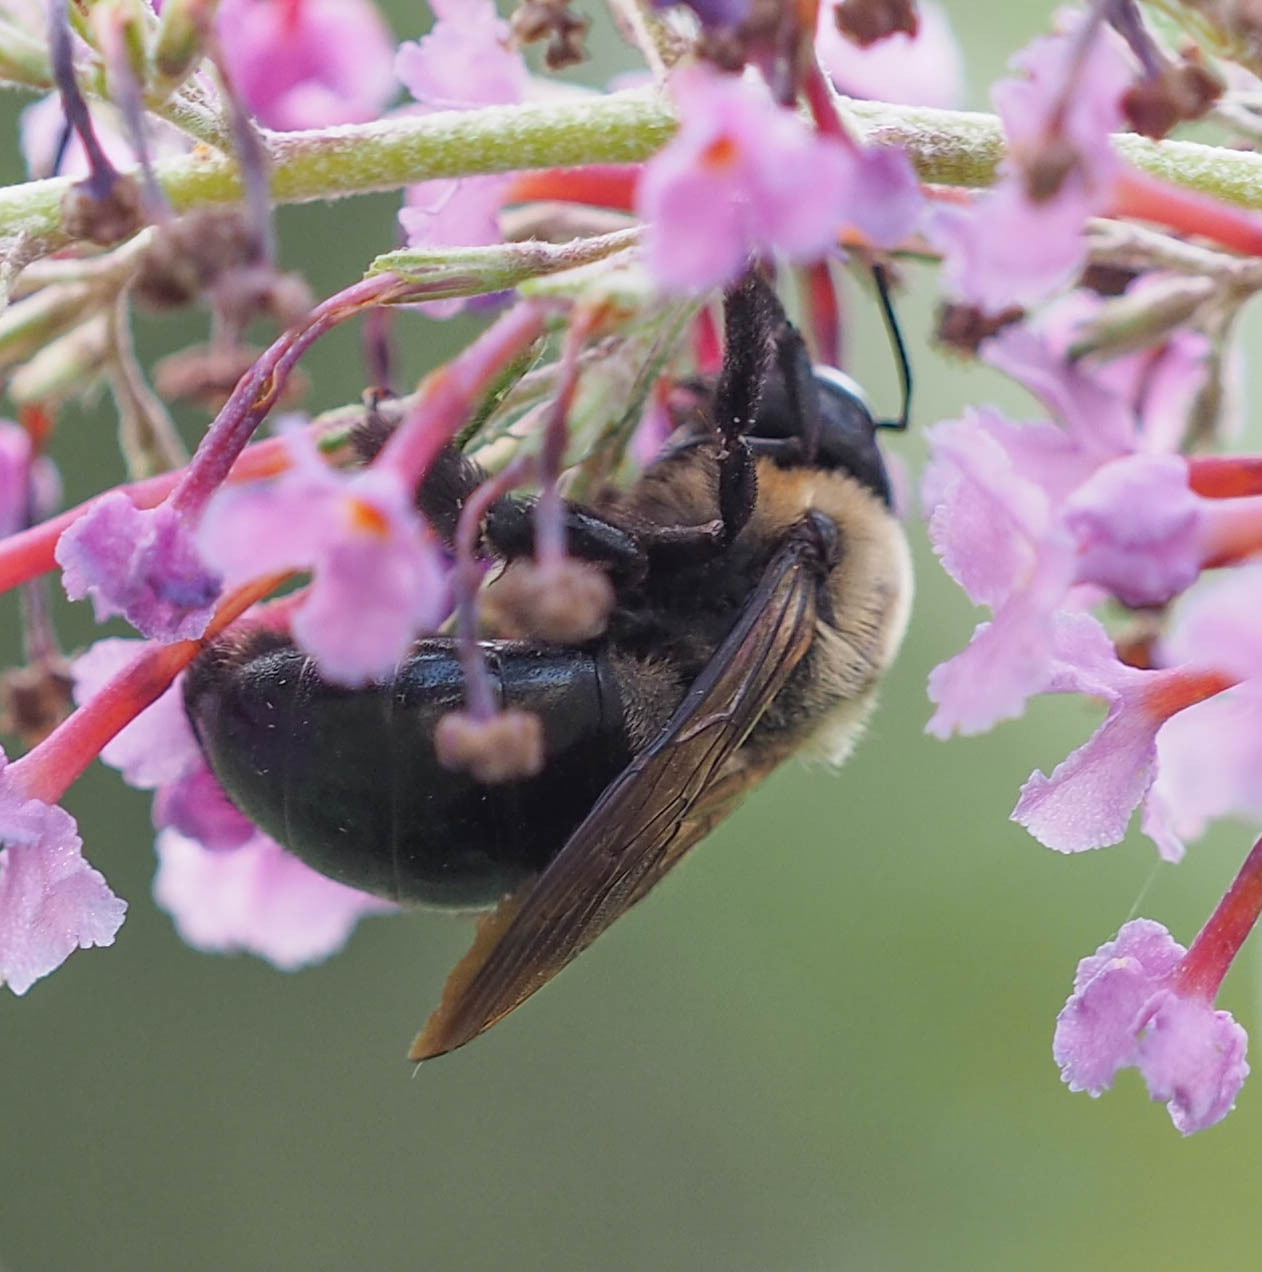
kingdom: Animalia
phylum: Arthropoda
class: Insecta
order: Hymenoptera
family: Apidae
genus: Xylocopa
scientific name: Xylocopa virginica
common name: Carpenter bee
